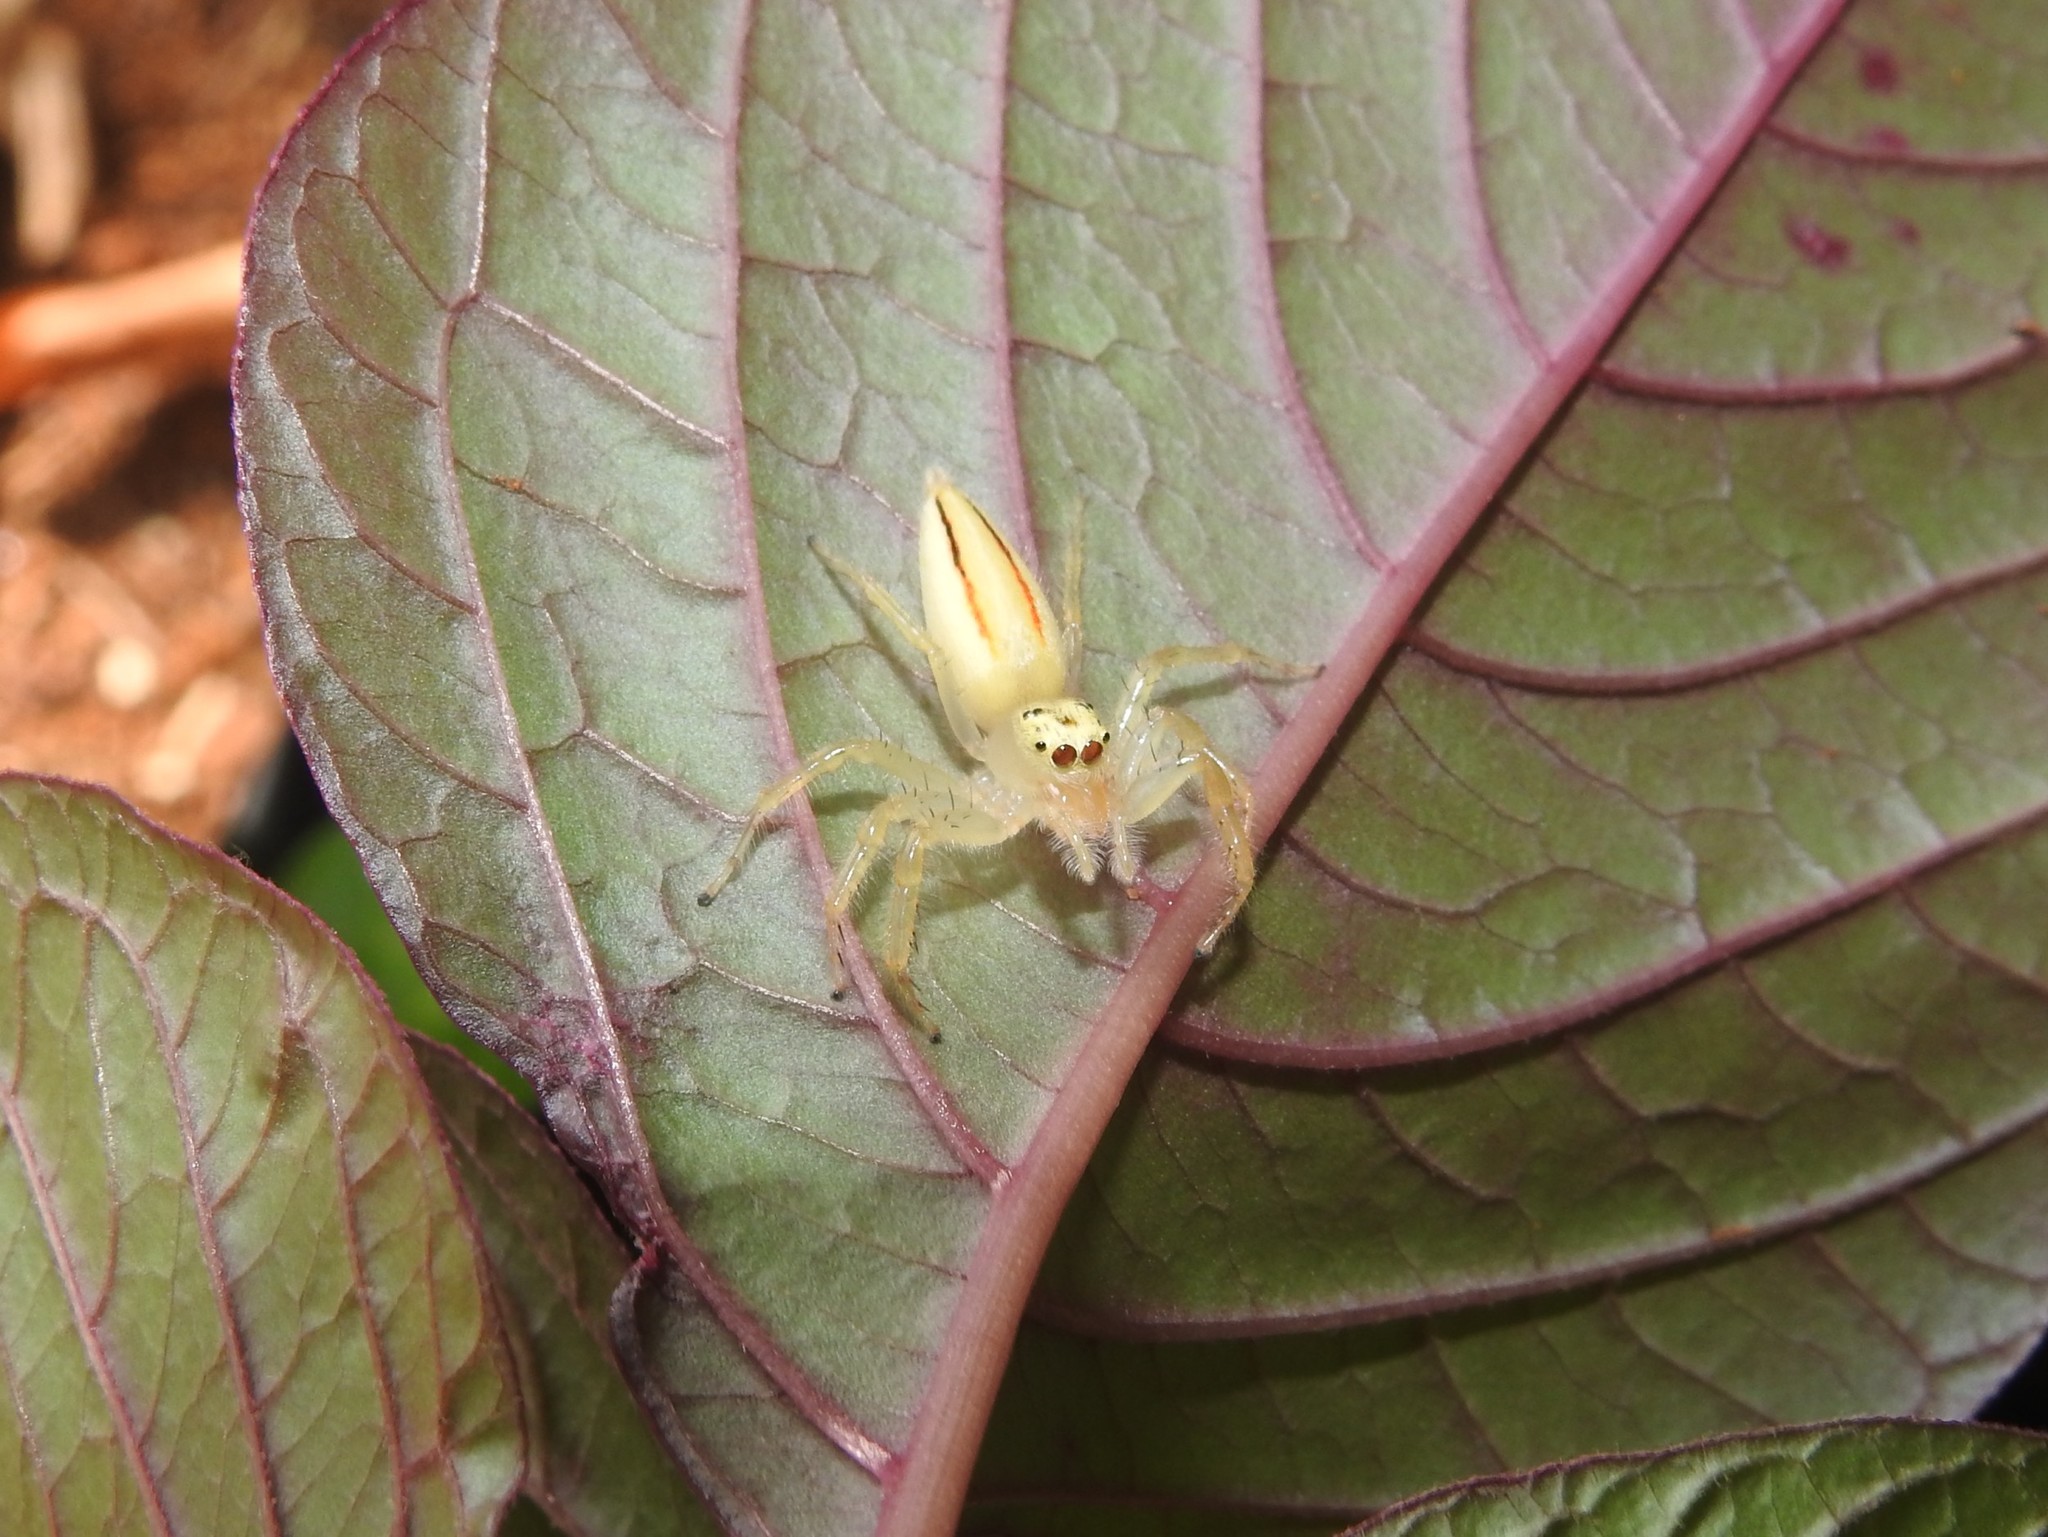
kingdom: Animalia
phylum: Arthropoda
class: Arachnida
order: Araneae
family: Salticidae
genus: Telamonia
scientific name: Telamonia dimidiata
